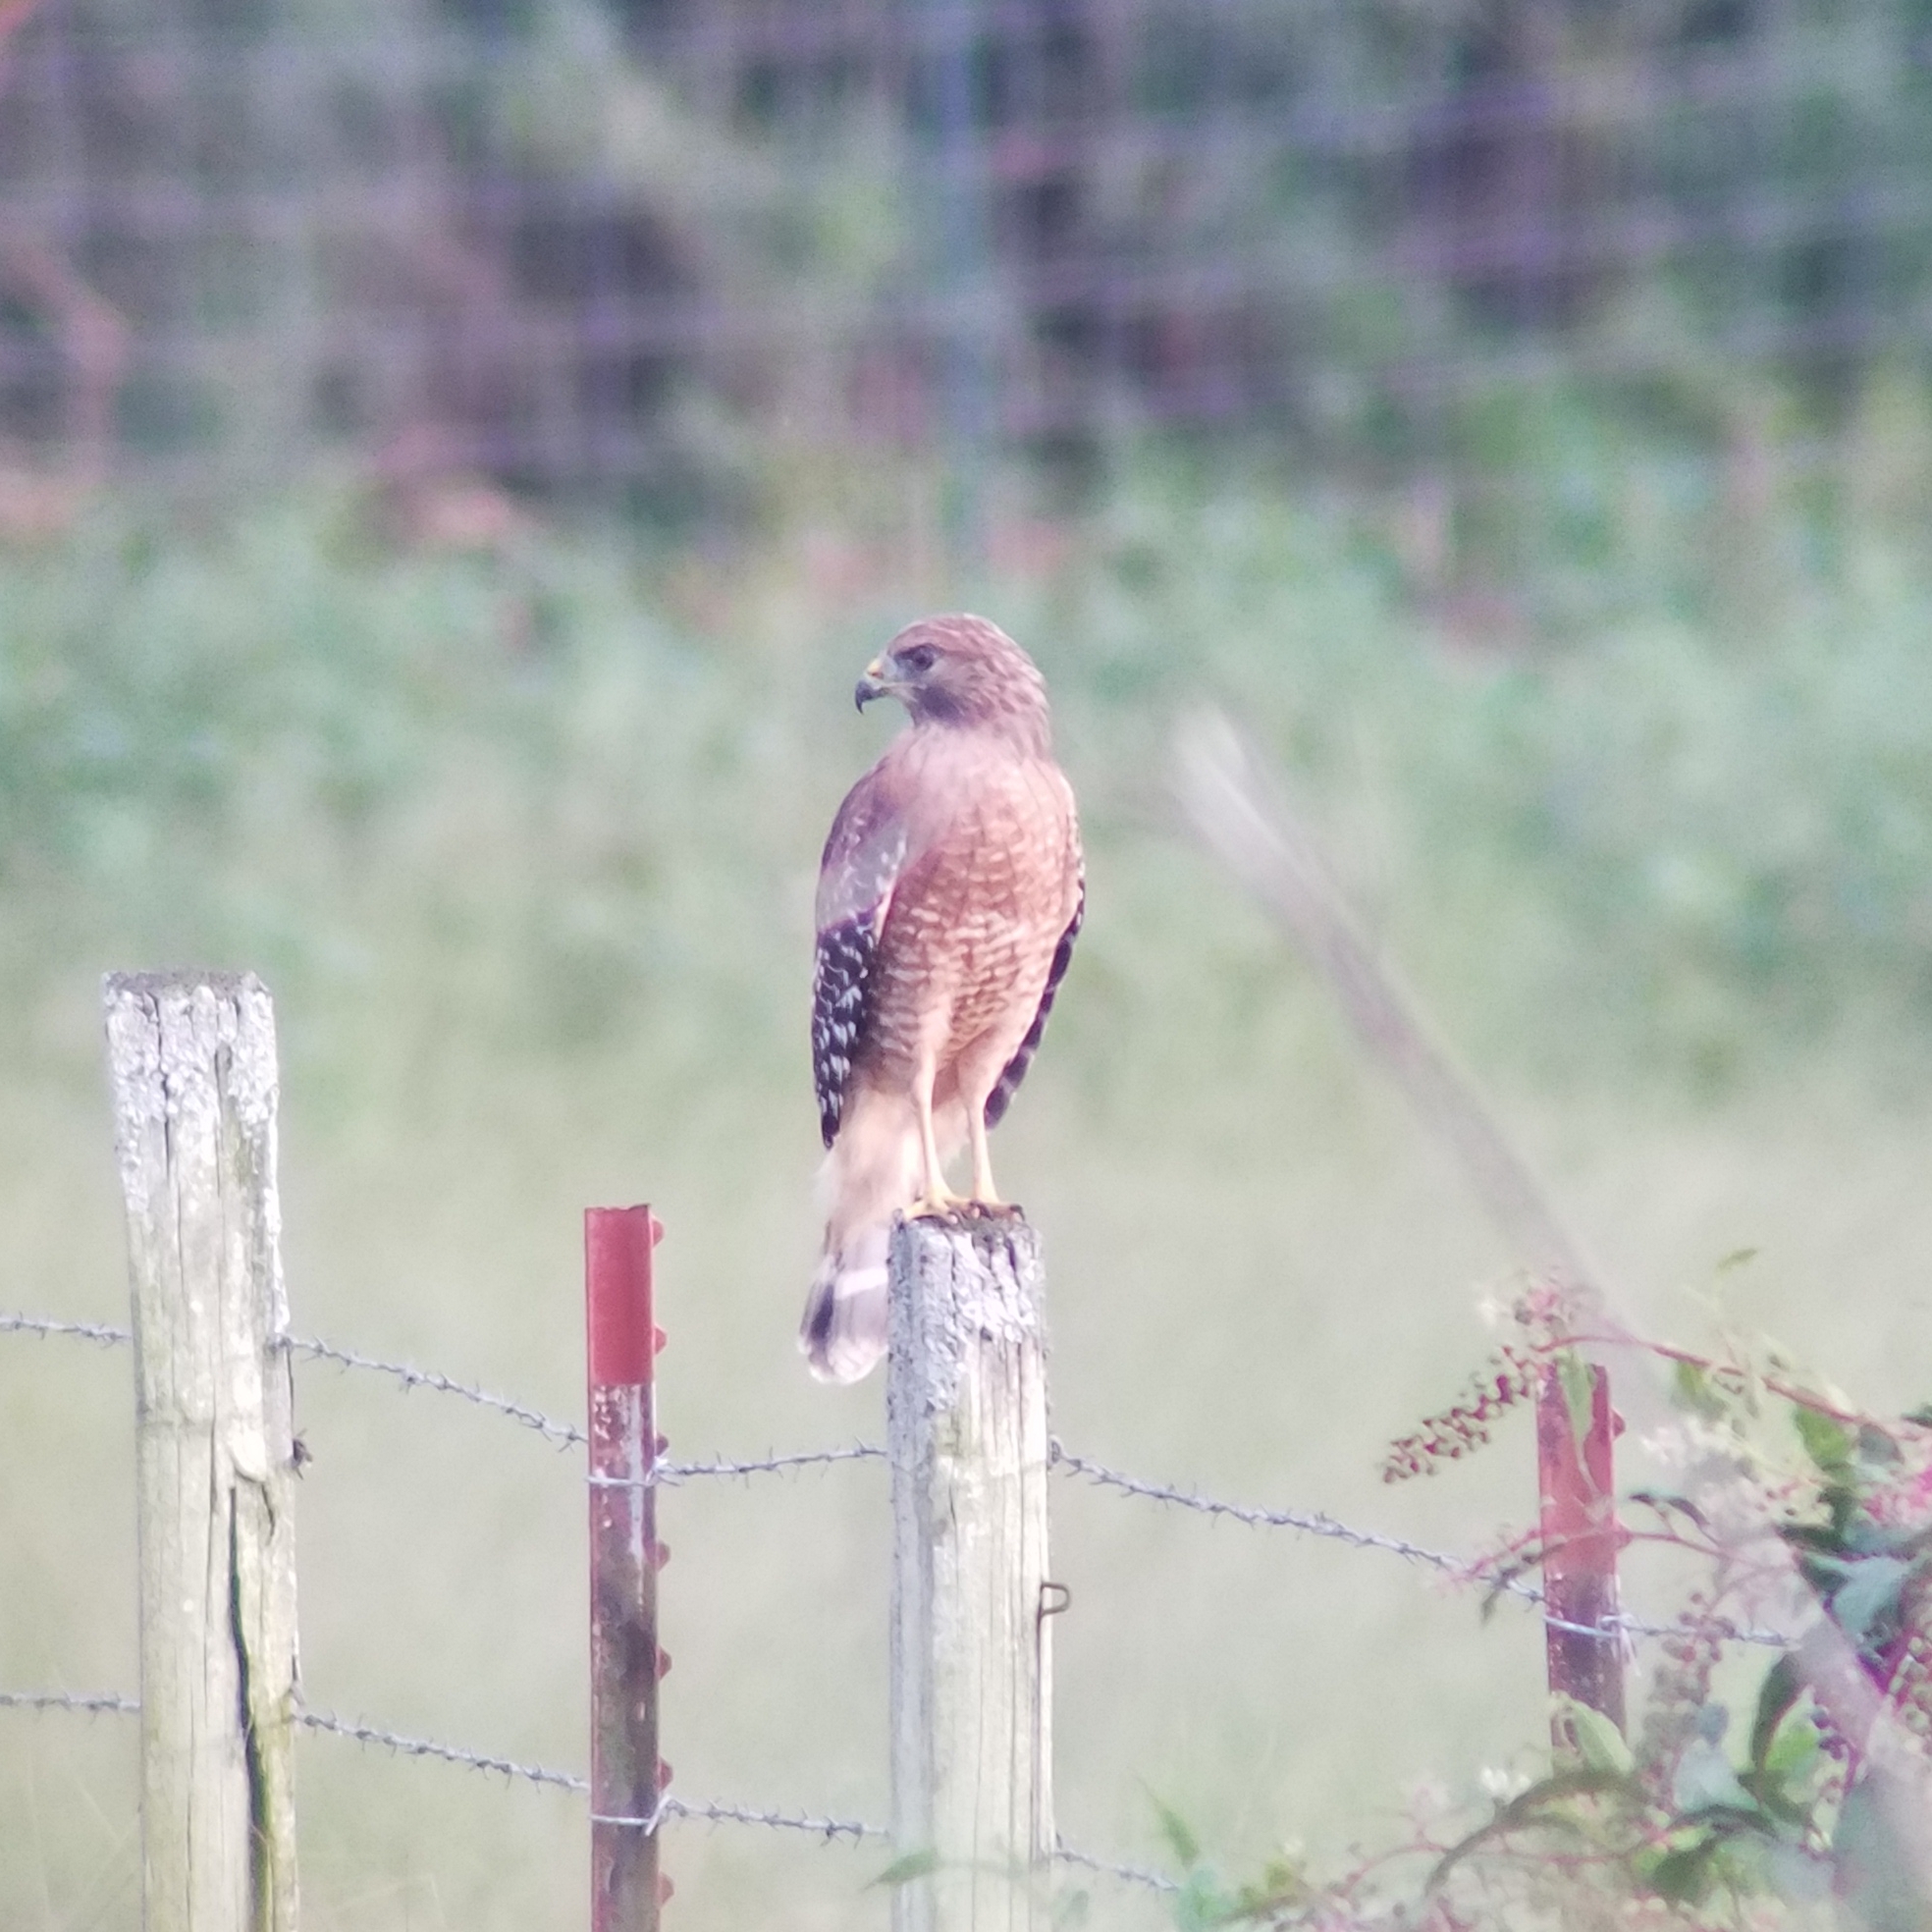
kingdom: Animalia
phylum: Chordata
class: Aves
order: Accipitriformes
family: Accipitridae
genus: Buteo
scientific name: Buteo lineatus
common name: Red-shouldered hawk
